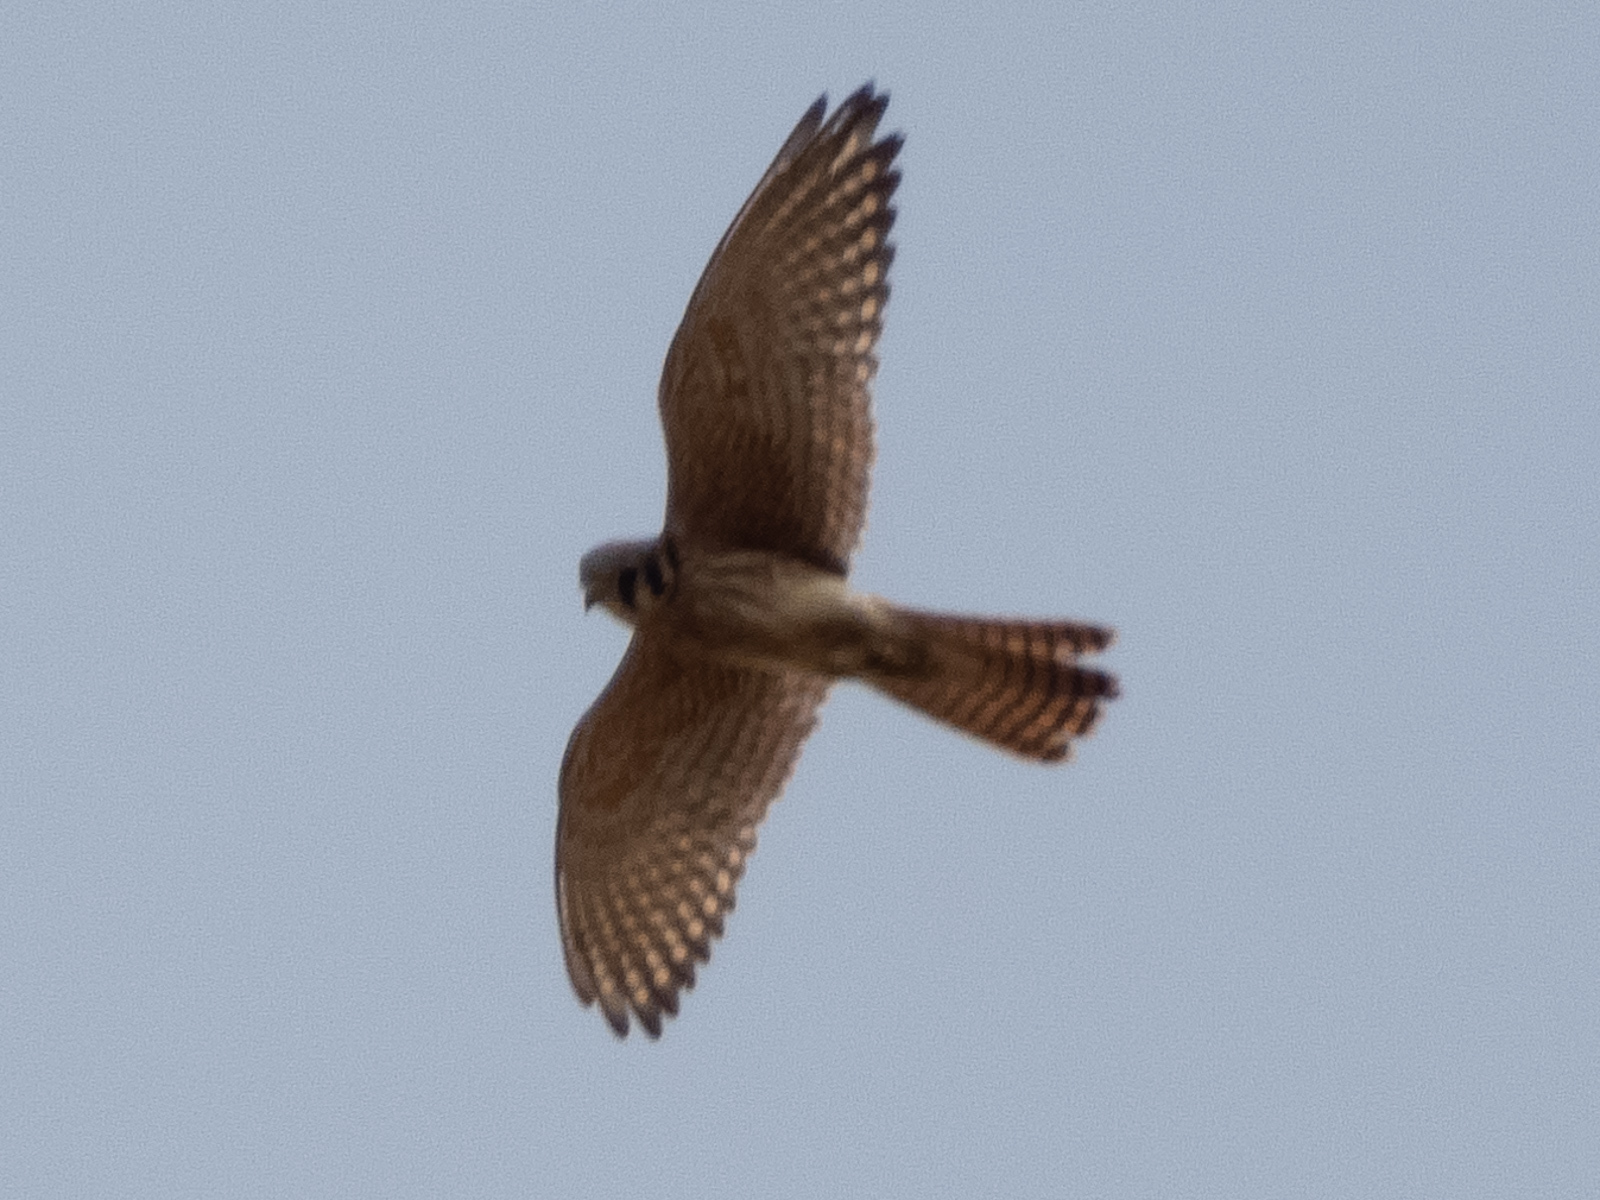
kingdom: Animalia
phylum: Chordata
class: Aves
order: Falconiformes
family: Falconidae
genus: Falco
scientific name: Falco sparverius
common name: American kestrel
